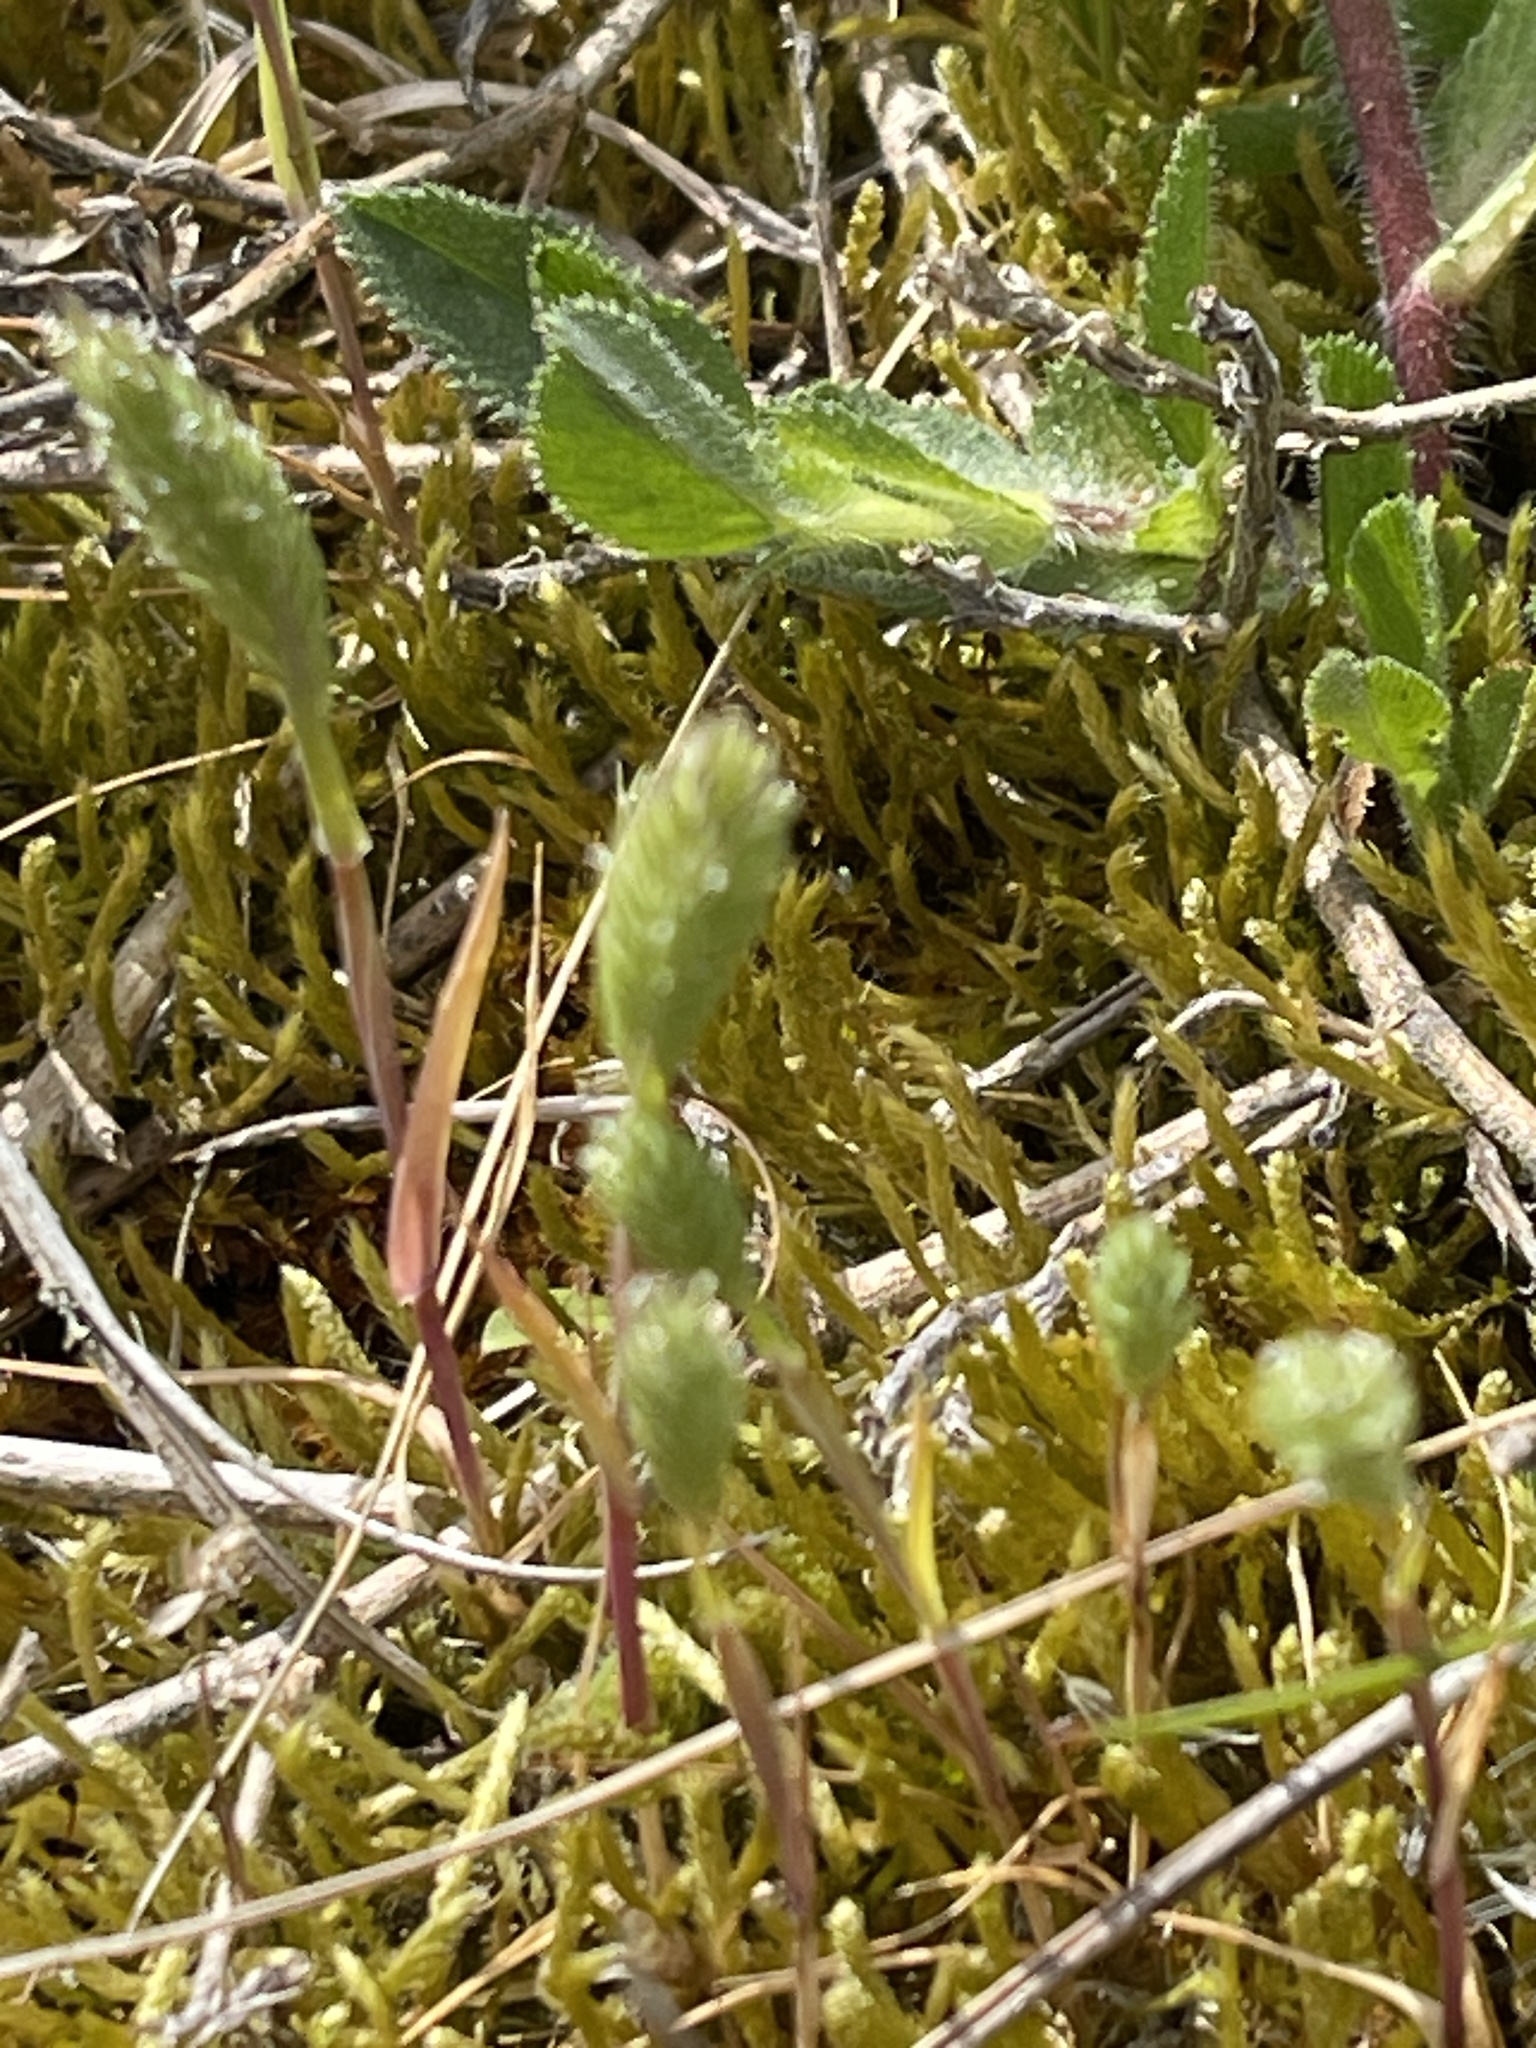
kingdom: Plantae
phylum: Tracheophyta
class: Liliopsida
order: Poales
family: Poaceae
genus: Phleum
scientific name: Phleum arenarium
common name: Sand cat's-tail
